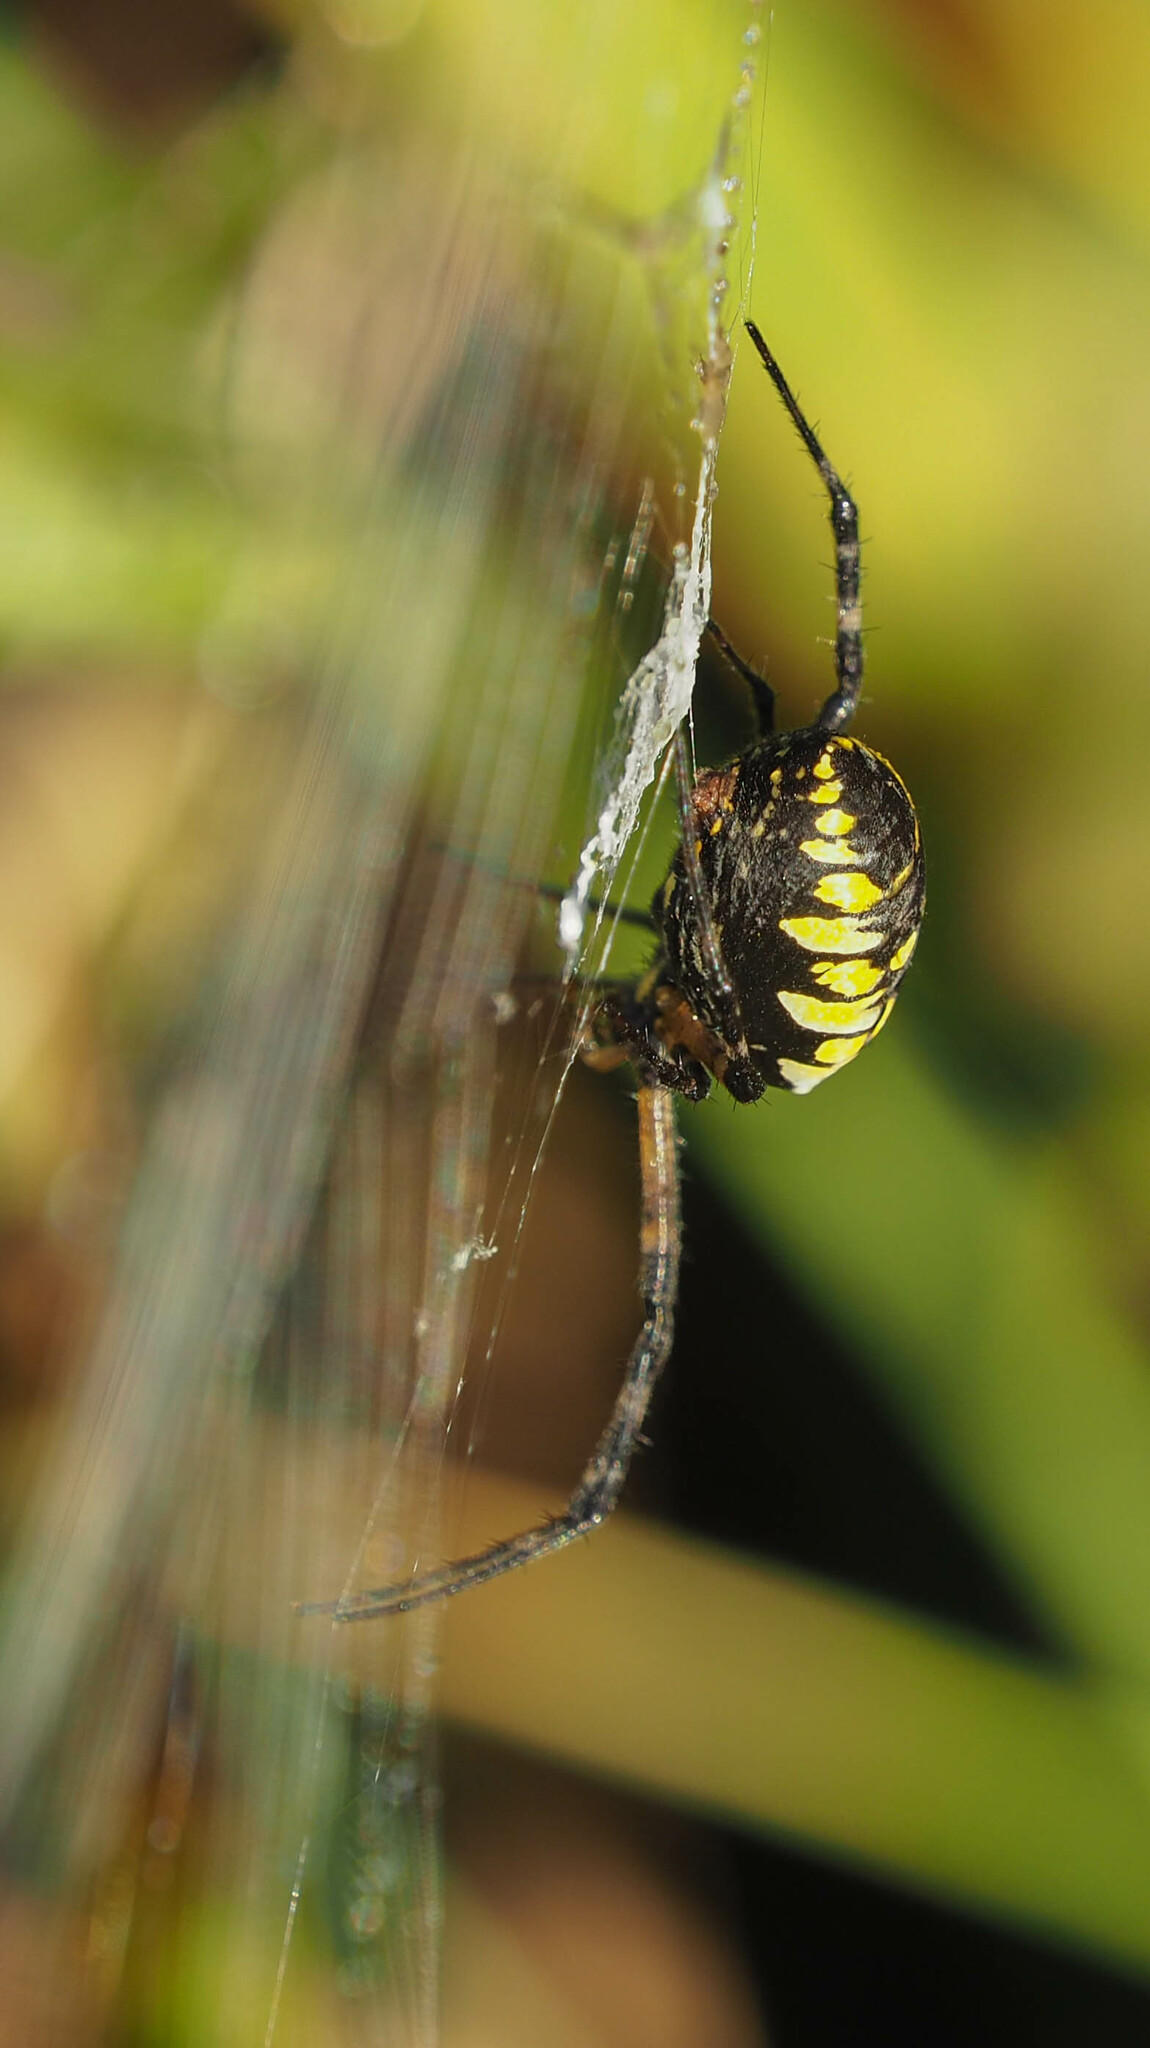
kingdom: Animalia
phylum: Arthropoda
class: Arachnida
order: Araneae
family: Araneidae
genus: Argiope
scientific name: Argiope aurantia
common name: Orb weavers
